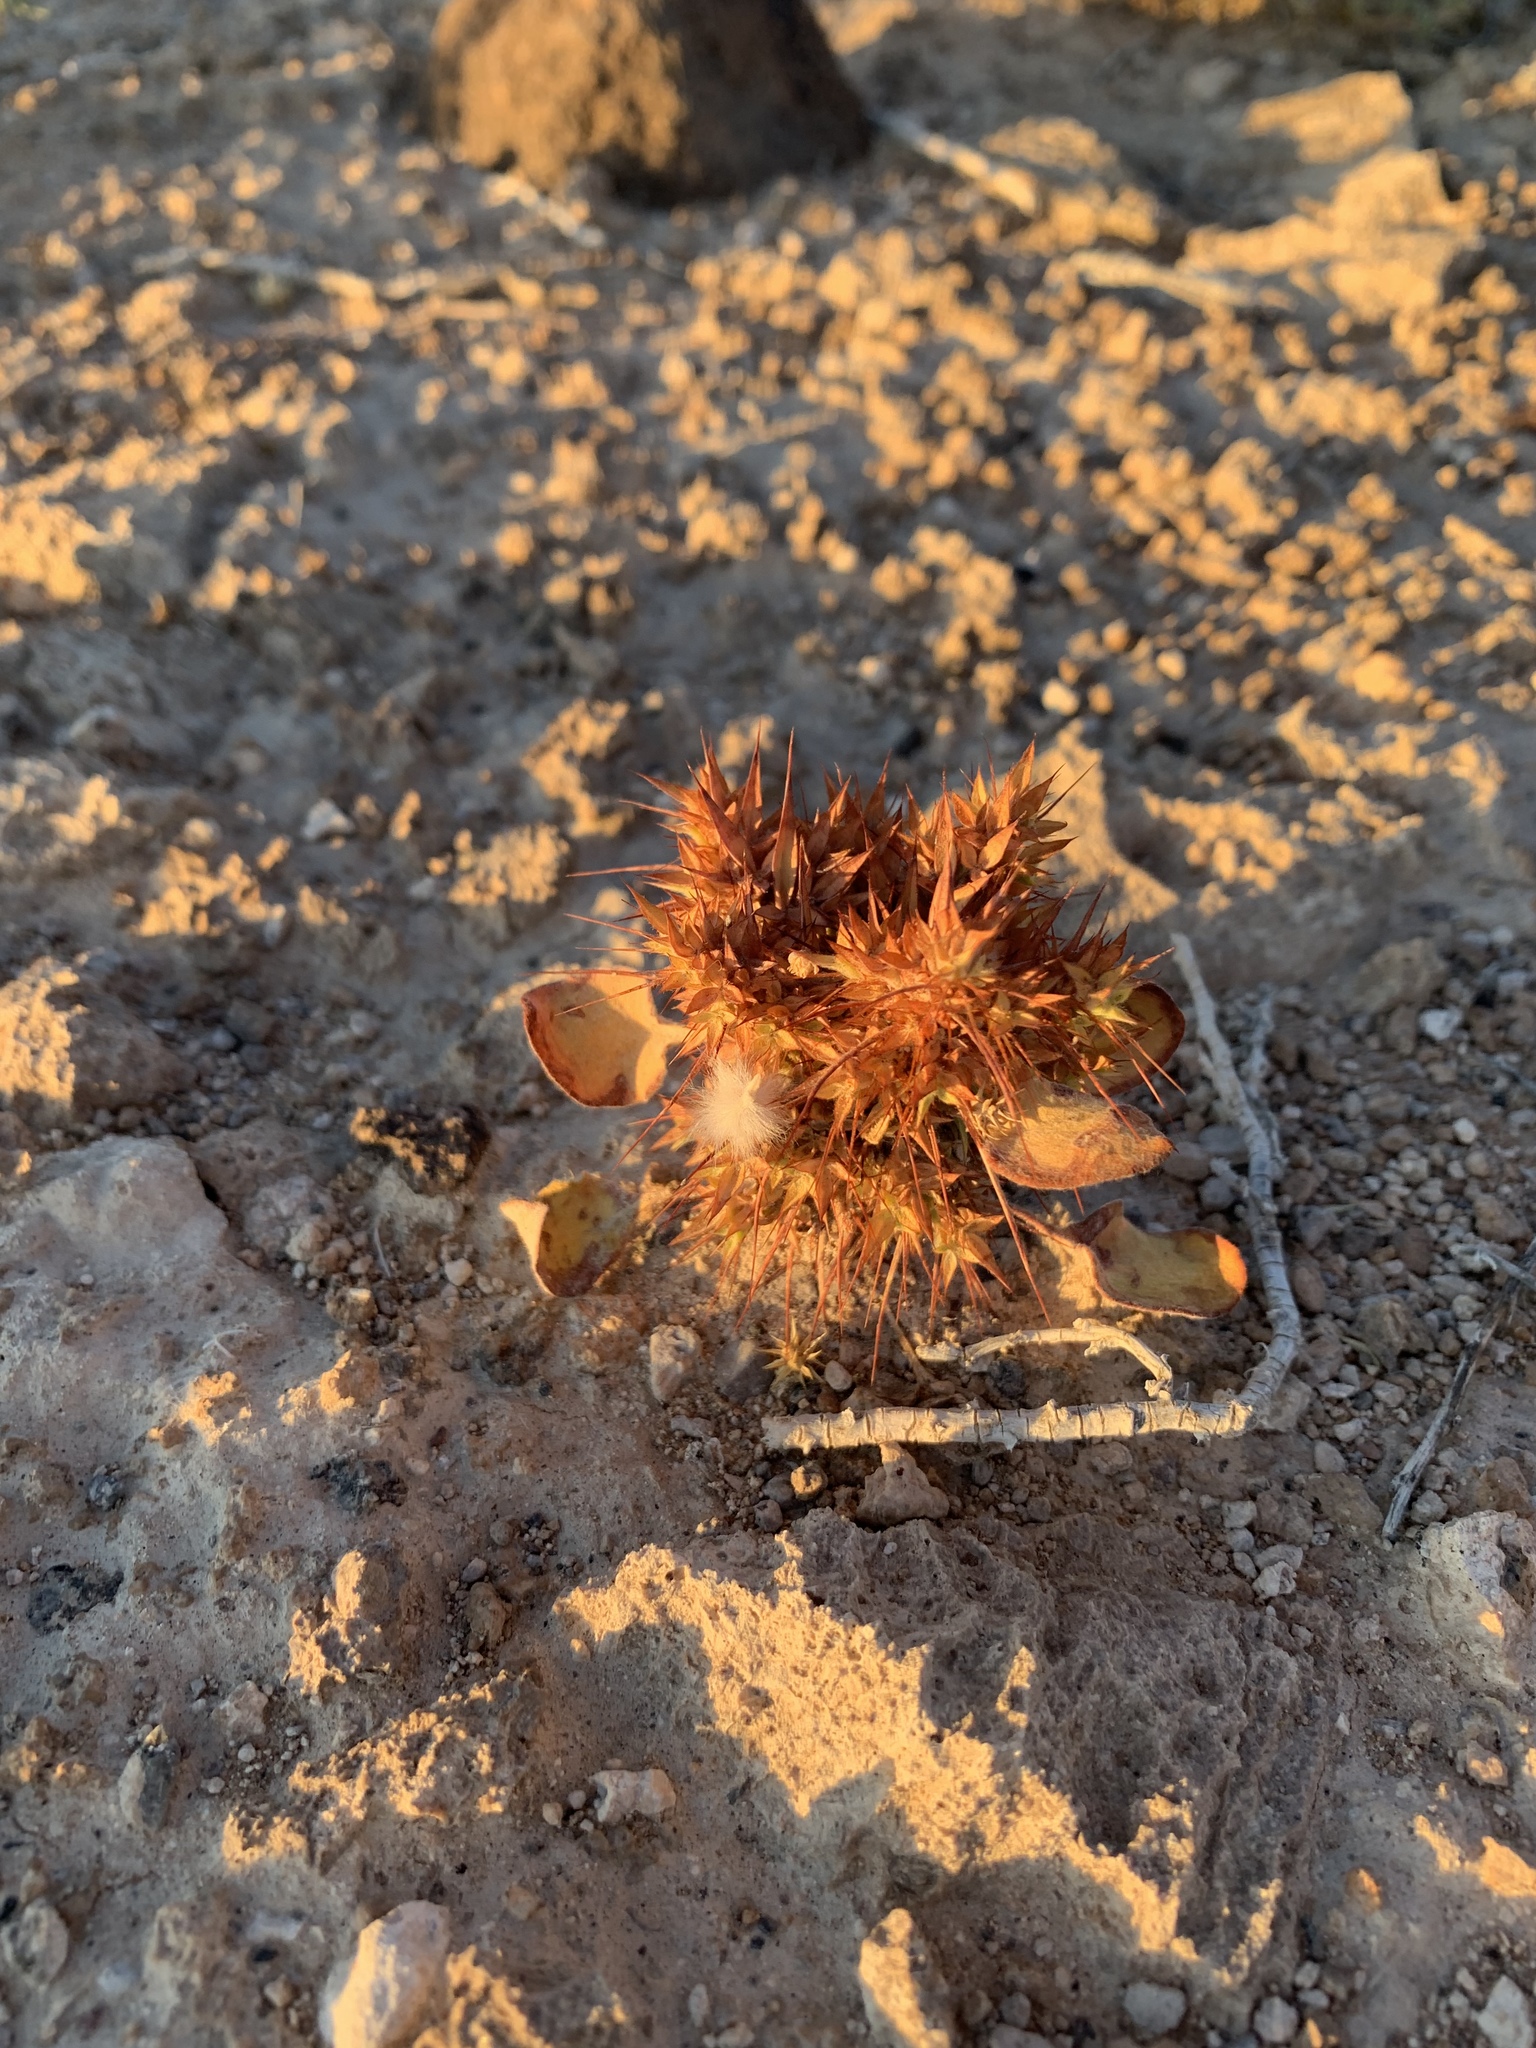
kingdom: Plantae
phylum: Tracheophyta
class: Magnoliopsida
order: Caryophyllales
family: Polygonaceae
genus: Chorizanthe
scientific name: Chorizanthe rigida
